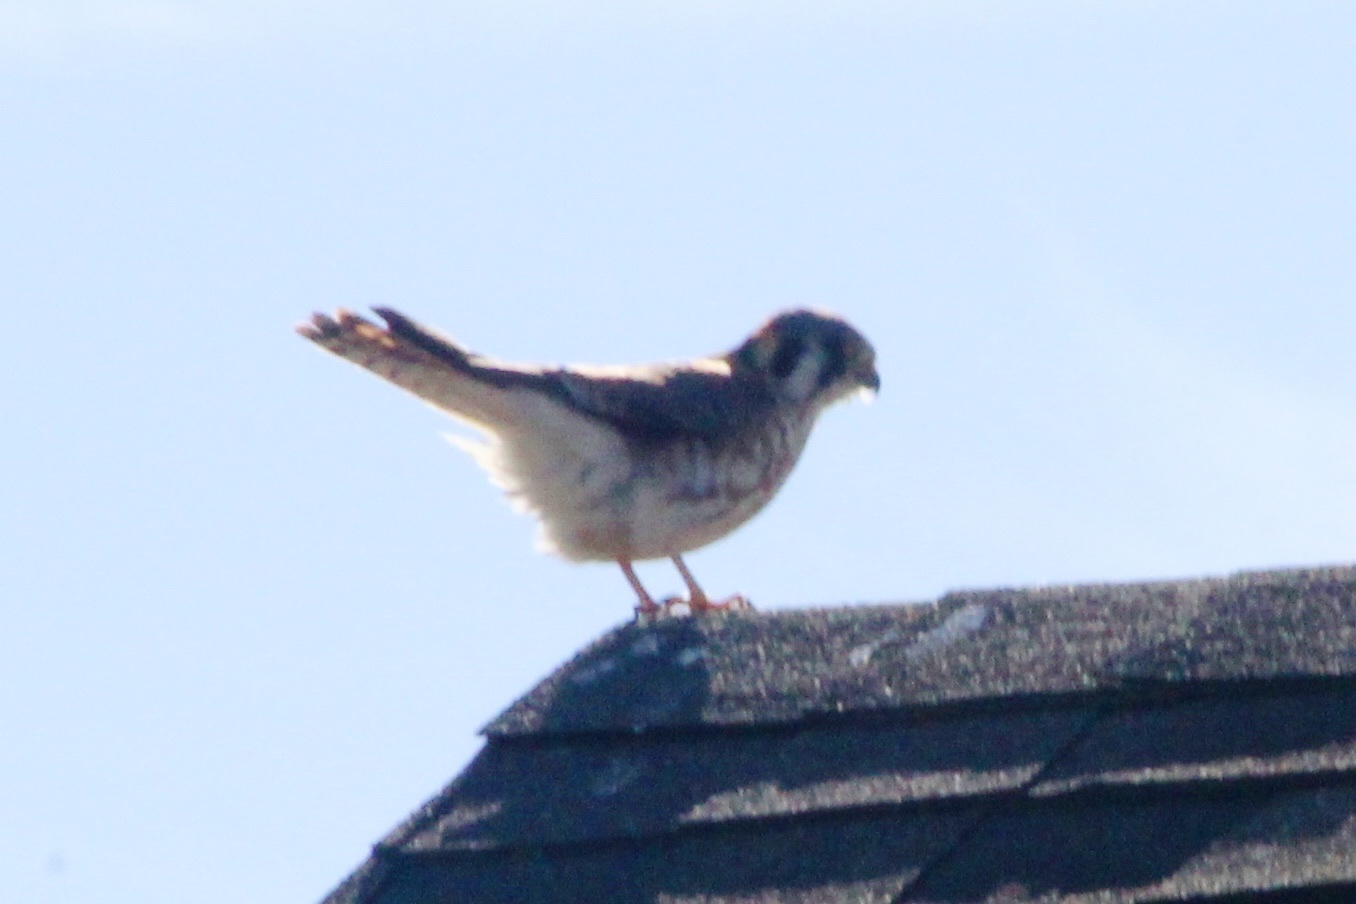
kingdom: Animalia
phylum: Chordata
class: Aves
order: Falconiformes
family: Falconidae
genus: Falco
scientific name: Falco sparverius
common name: American kestrel
